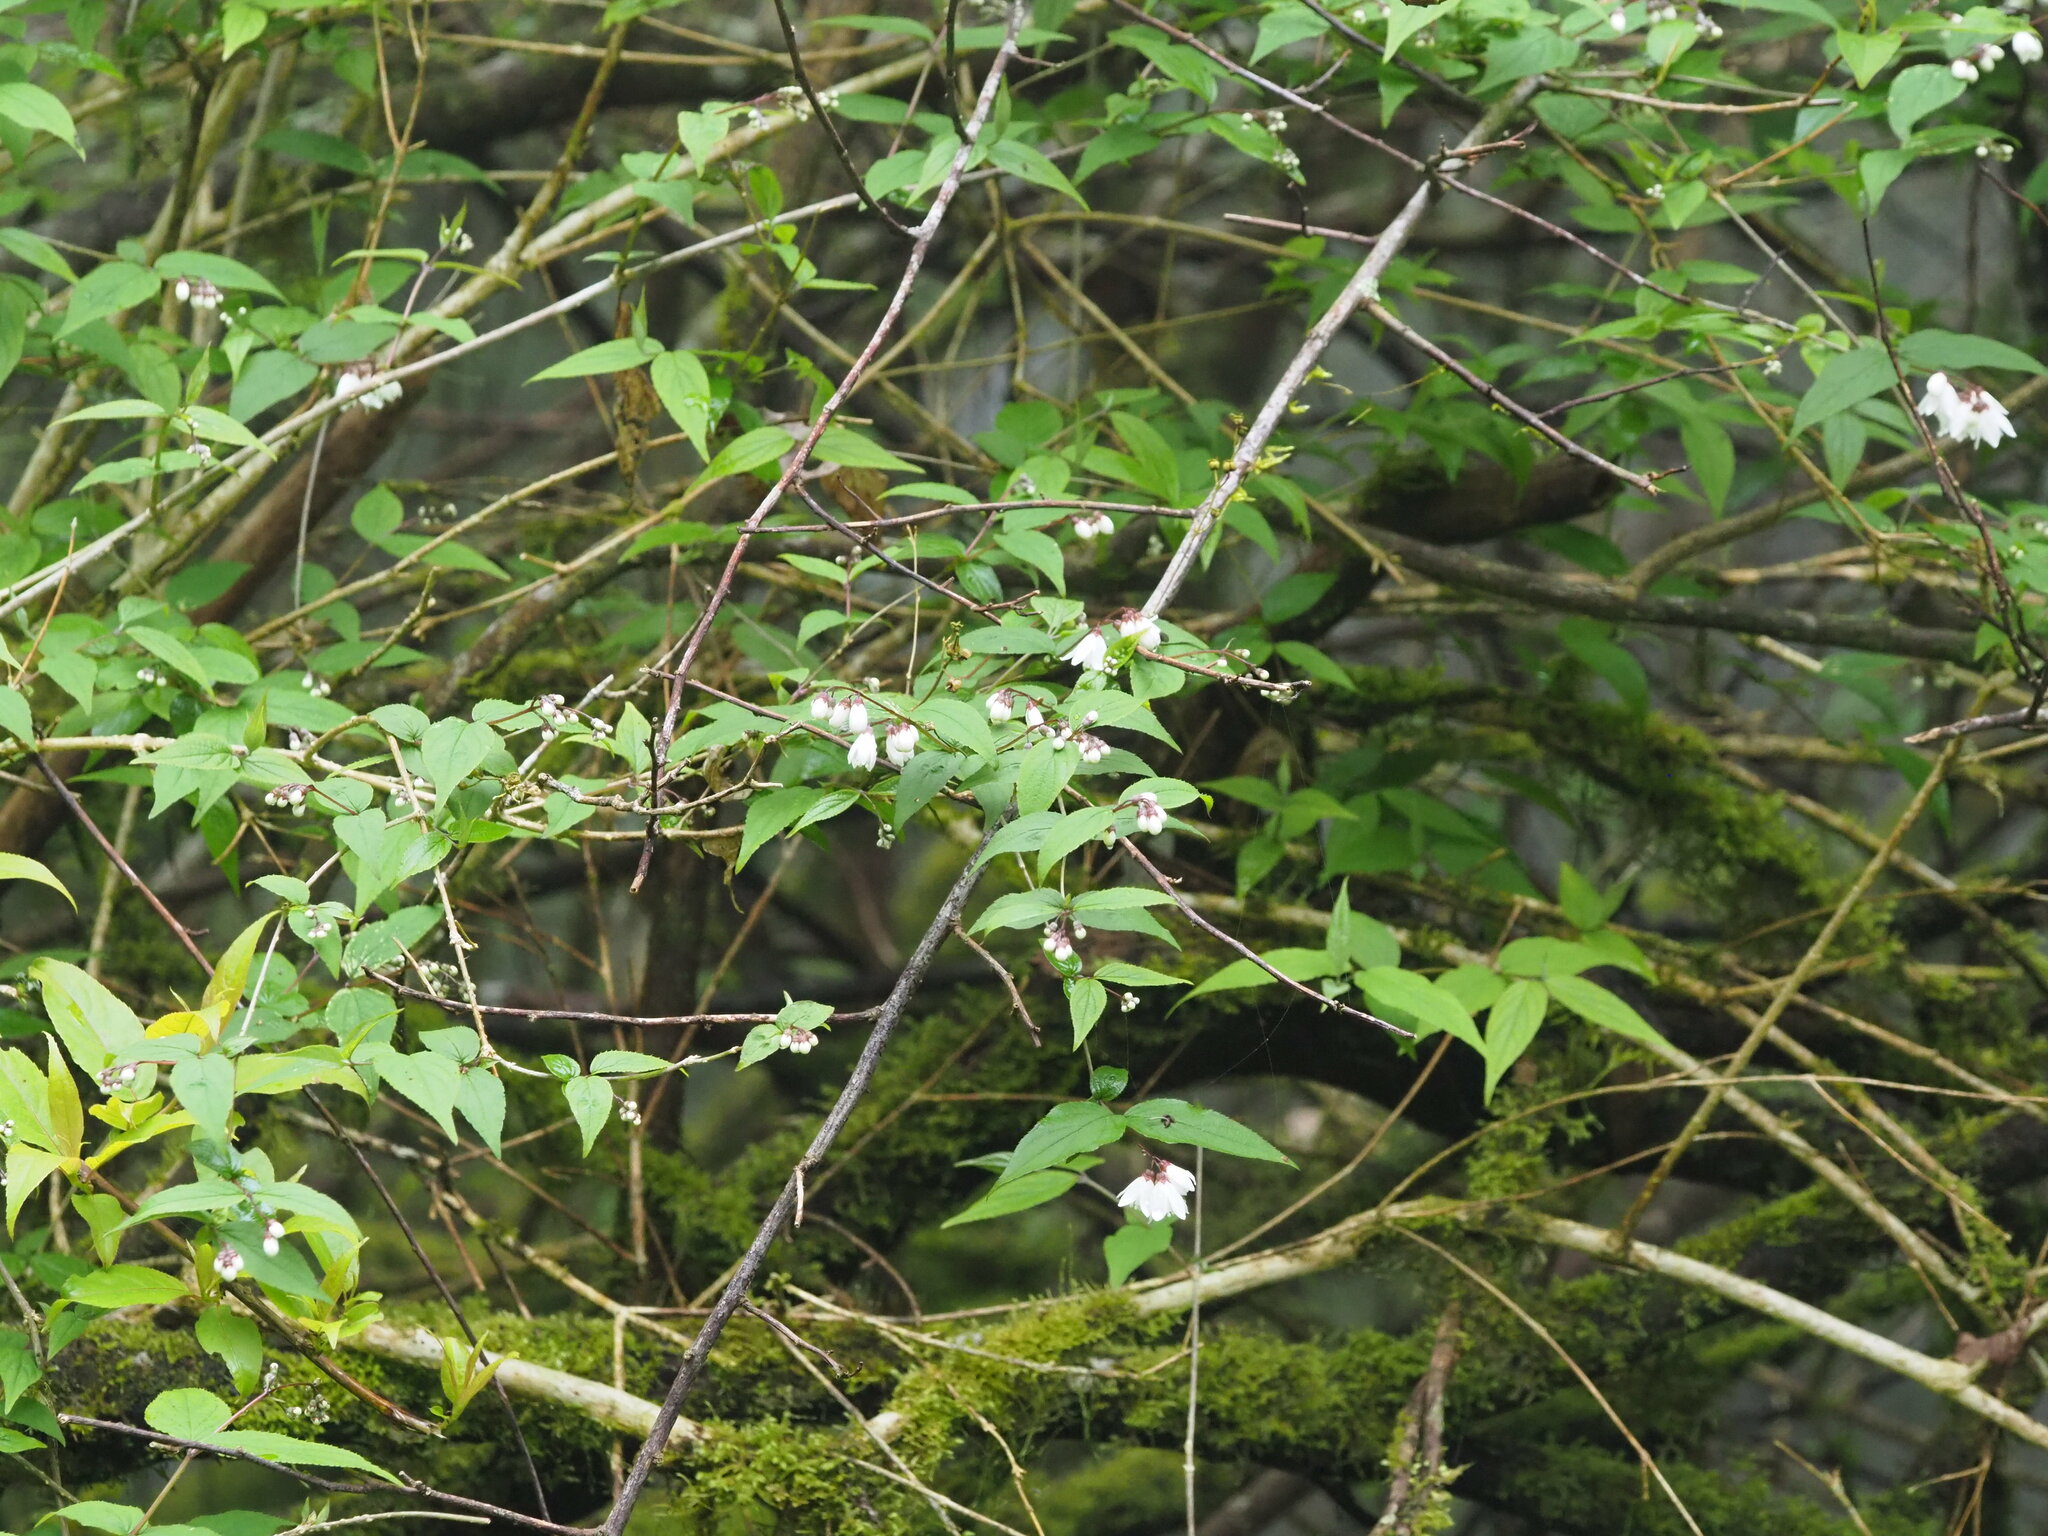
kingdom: Plantae
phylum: Tracheophyta
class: Magnoliopsida
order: Cornales
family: Hydrangeaceae
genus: Deutzia
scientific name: Deutzia taiwanensis
